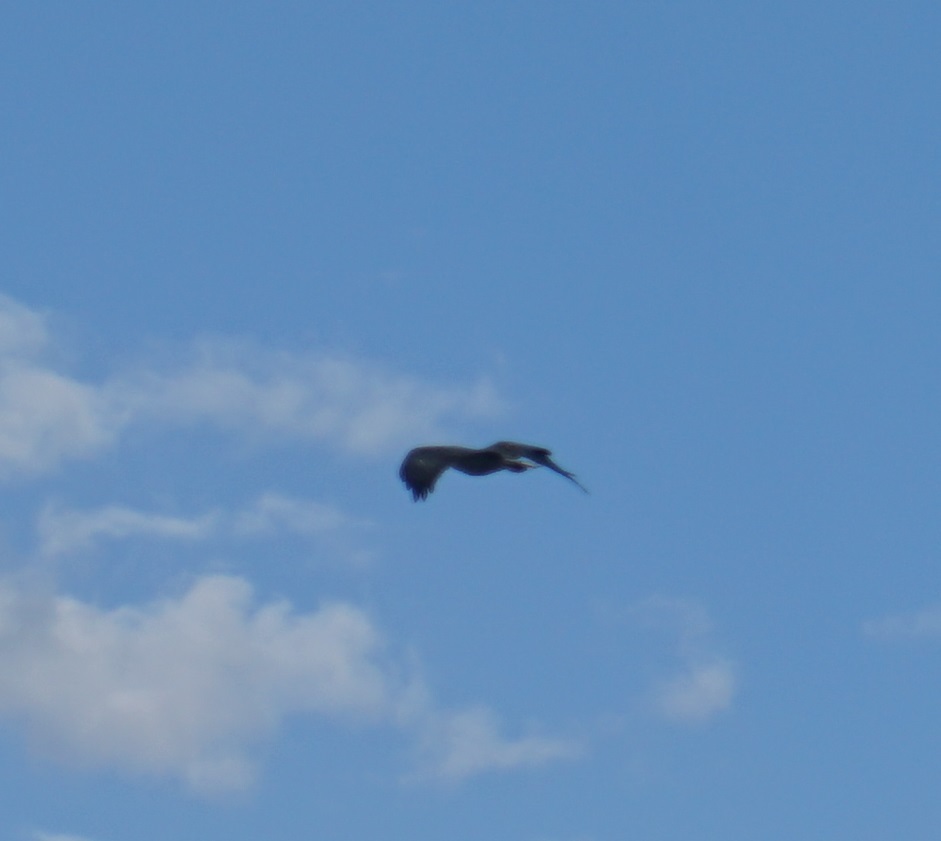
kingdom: Animalia
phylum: Chordata
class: Aves
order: Accipitriformes
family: Accipitridae
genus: Haliaeetus
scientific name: Haliaeetus leucogaster
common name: White-bellied sea eagle
